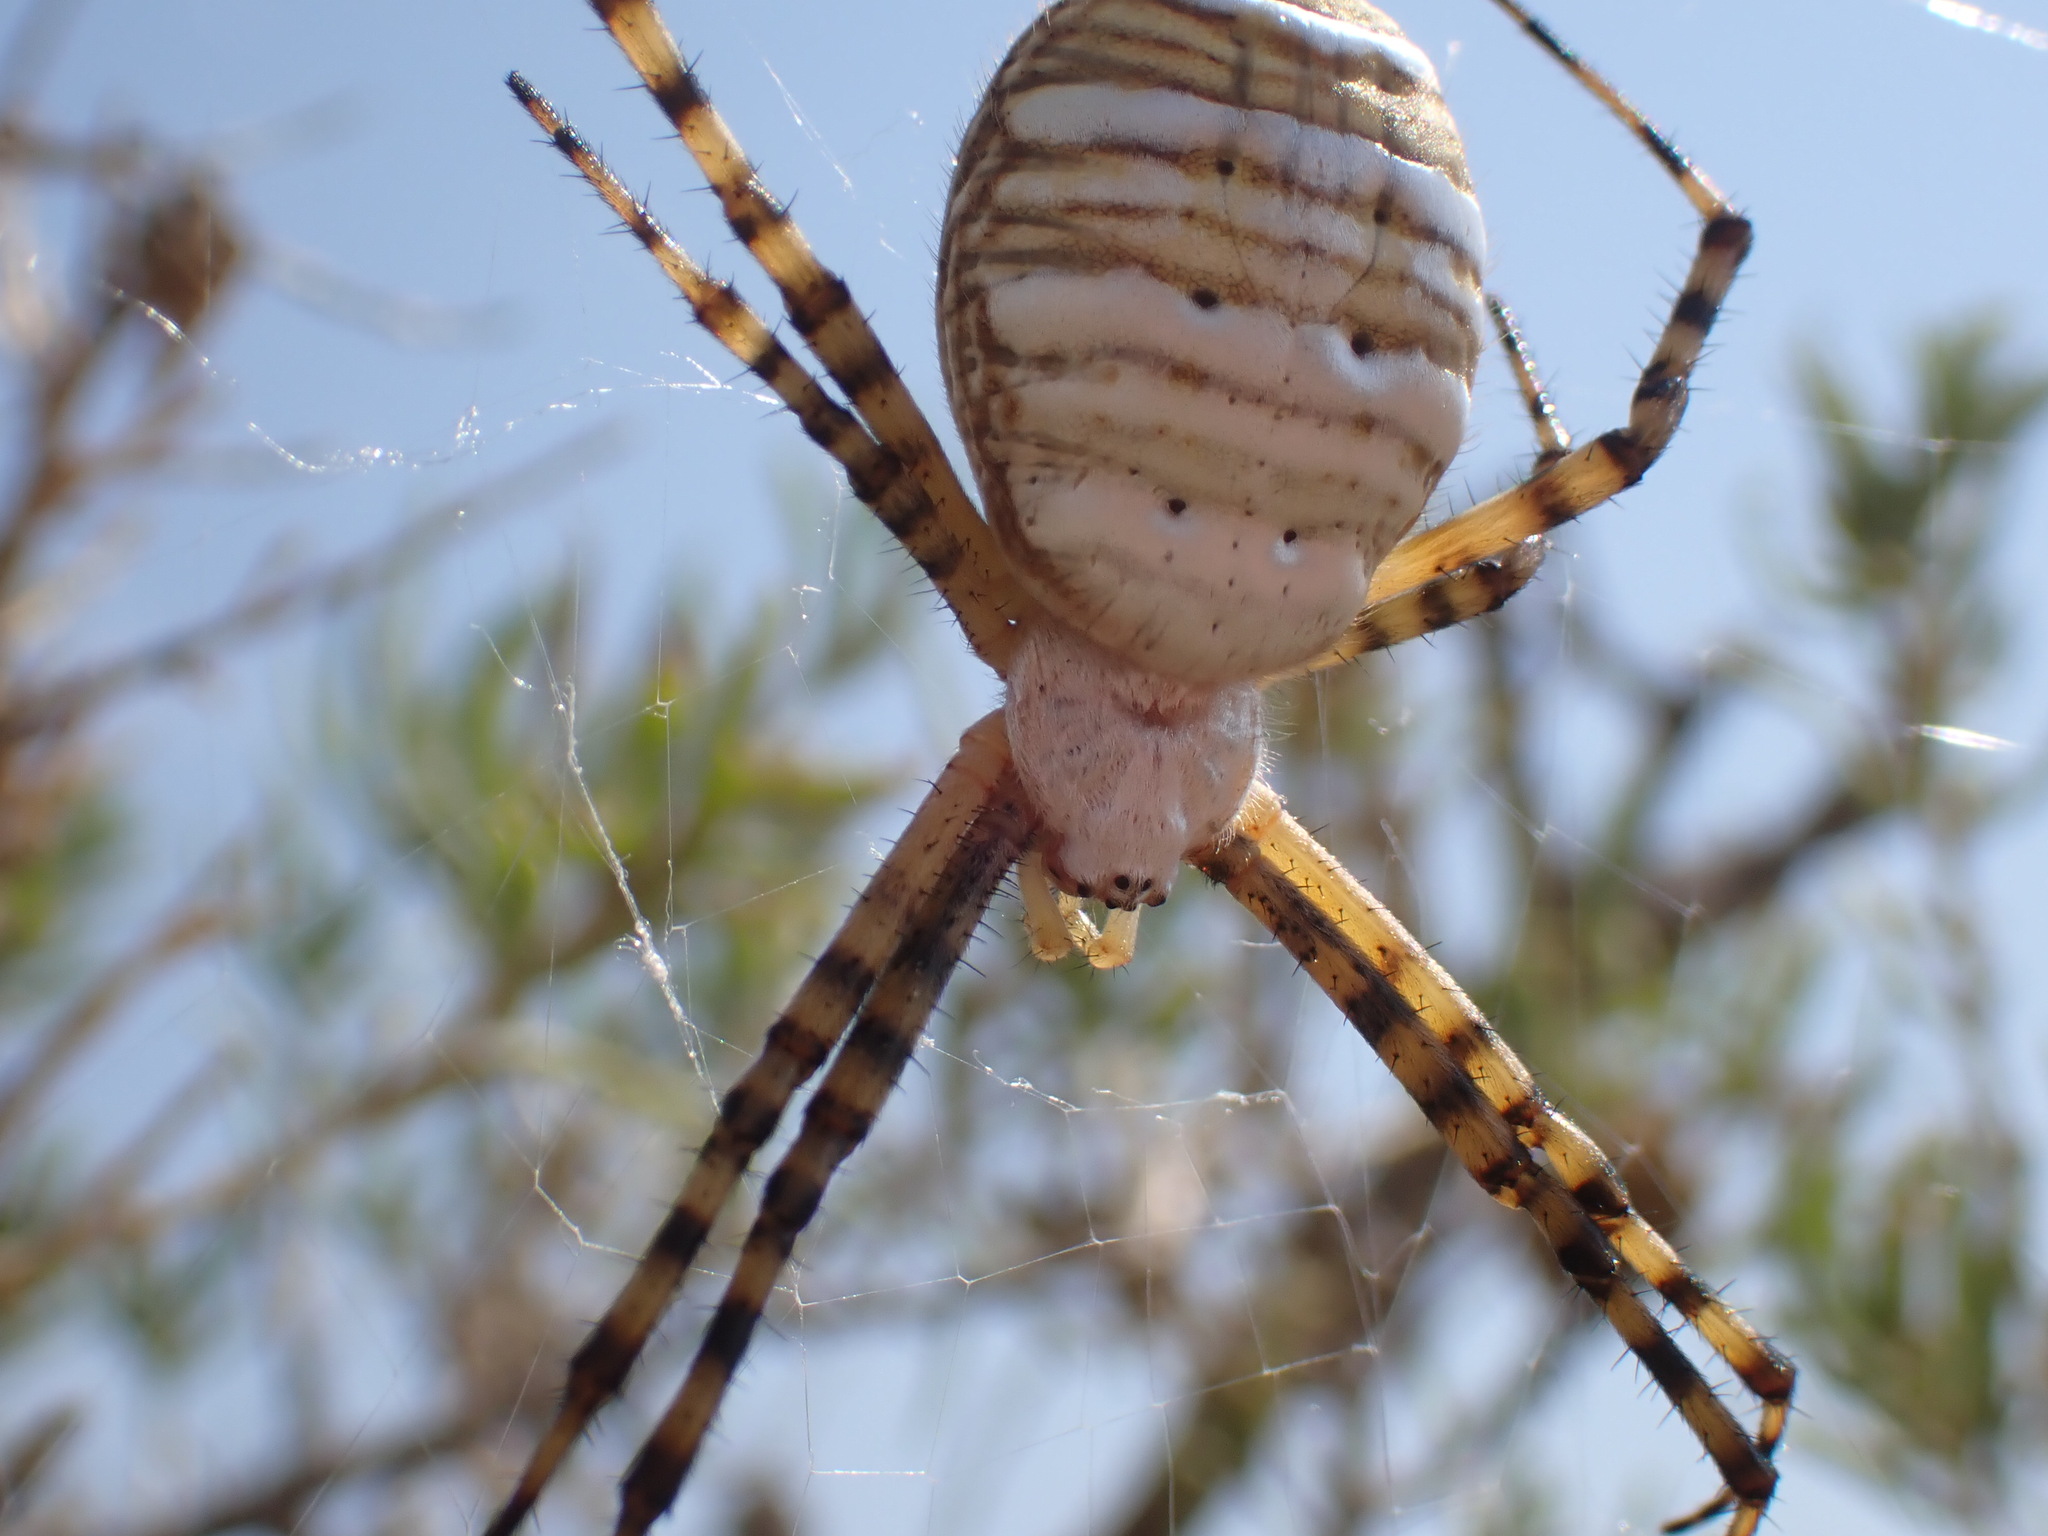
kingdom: Animalia
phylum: Arthropoda
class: Arachnida
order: Araneae
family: Araneidae
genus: Argiope
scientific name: Argiope trifasciata
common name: Banded garden spider
